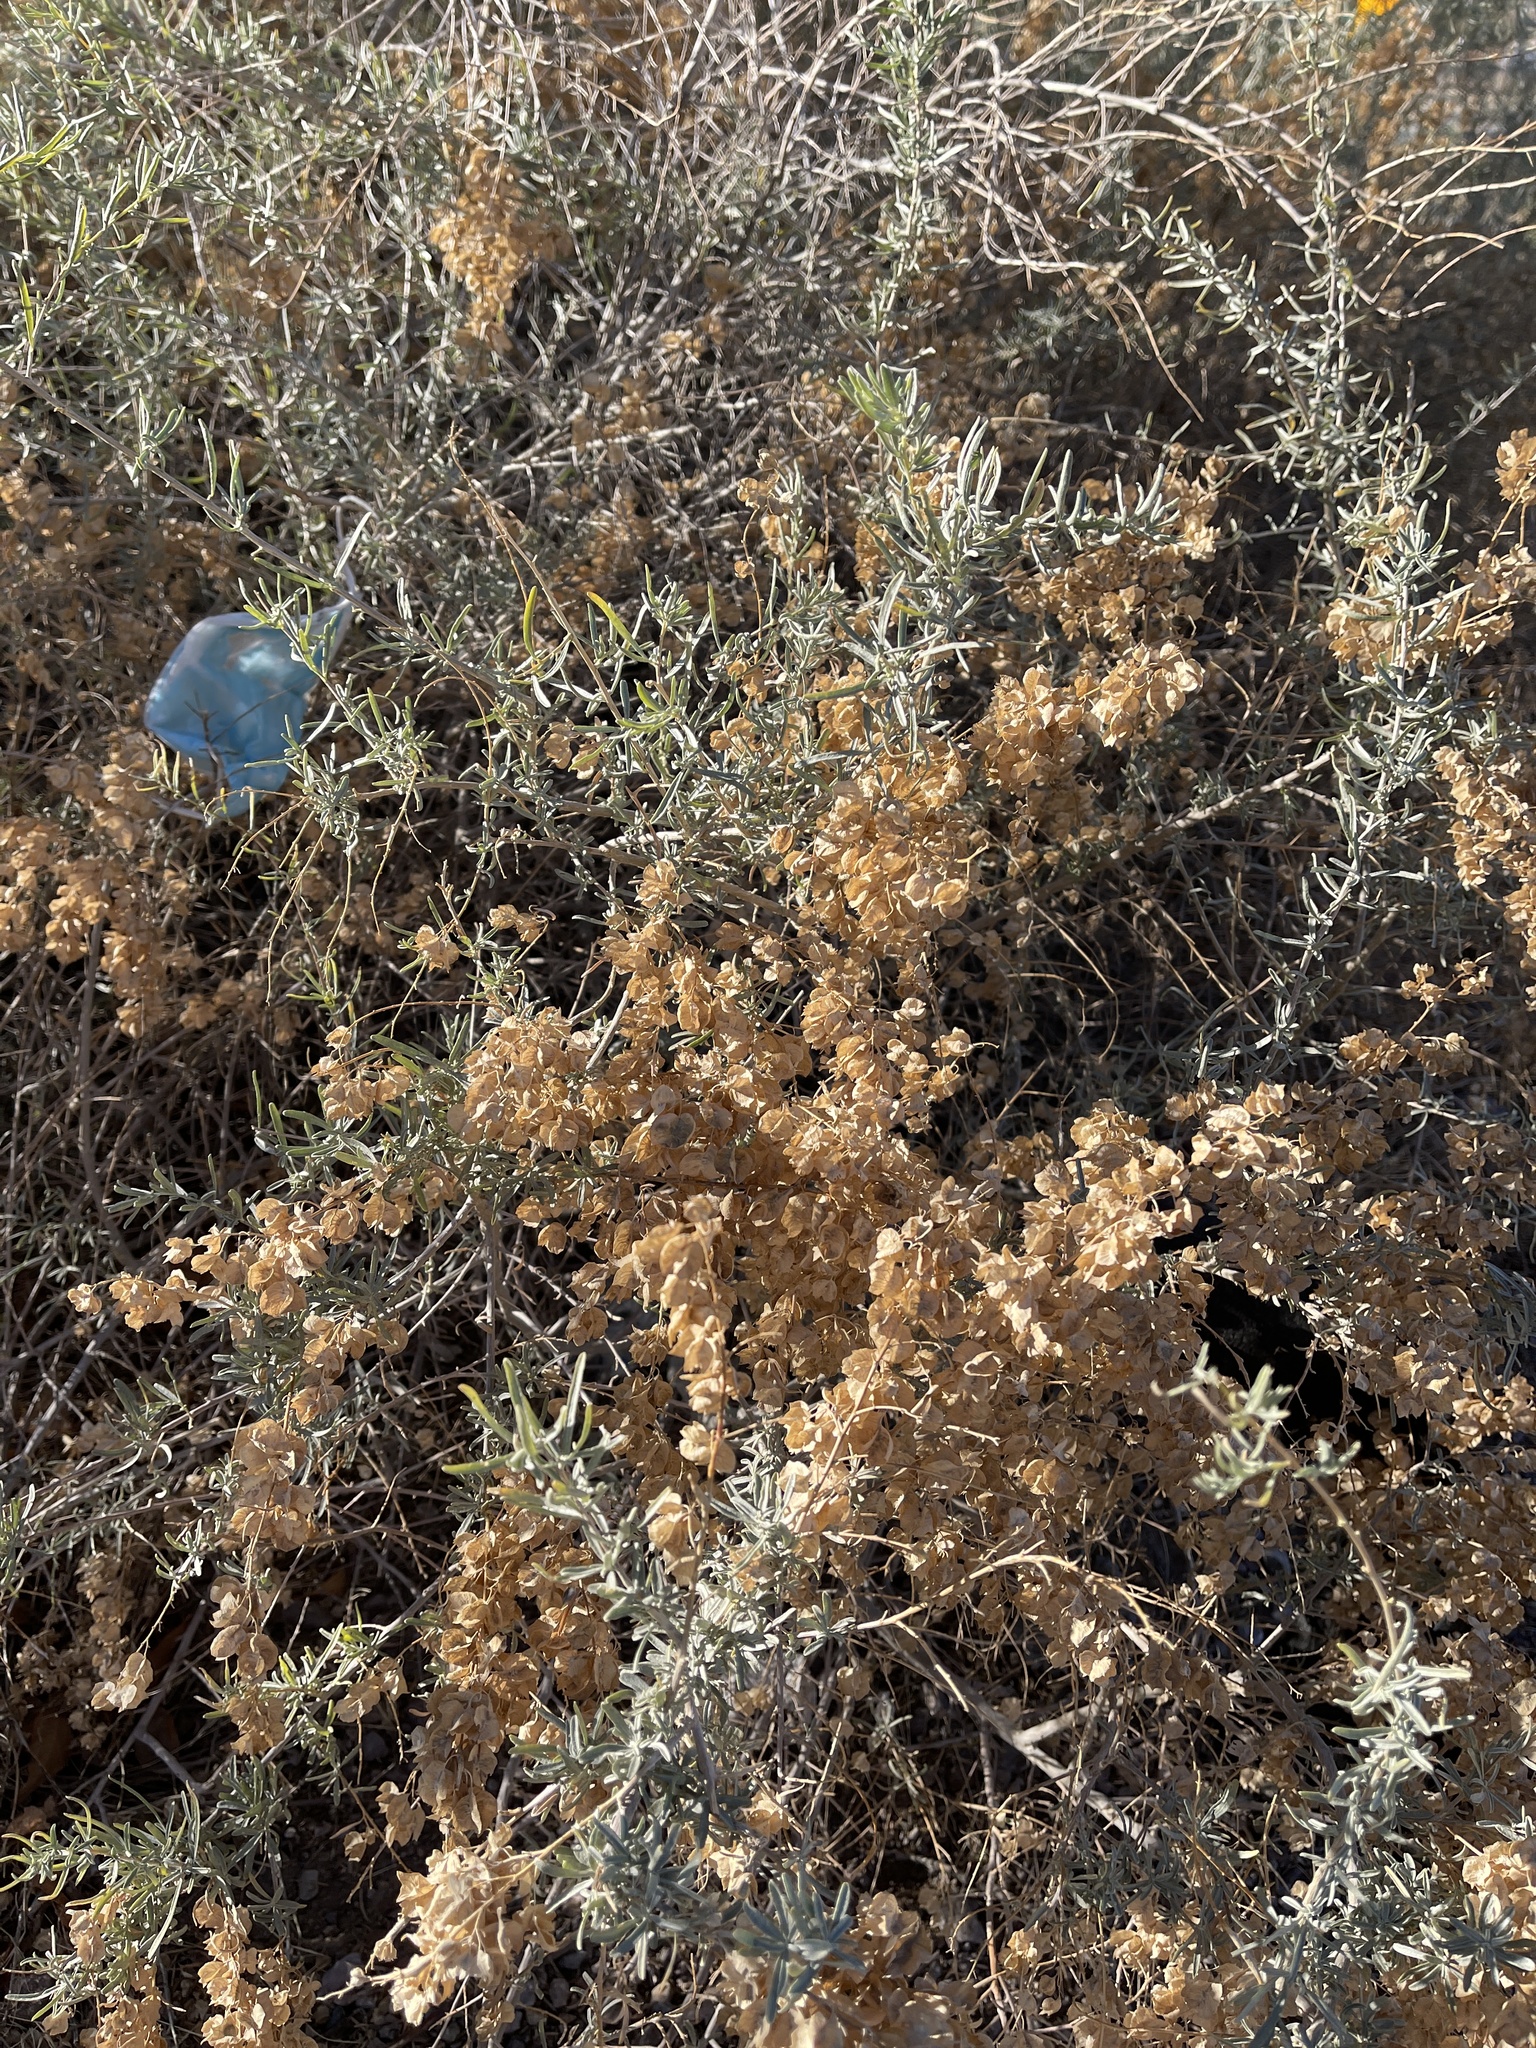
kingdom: Plantae
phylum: Tracheophyta
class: Magnoliopsida
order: Caryophyllales
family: Amaranthaceae
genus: Atriplex
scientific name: Atriplex canescens
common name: Four-wing saltbush
